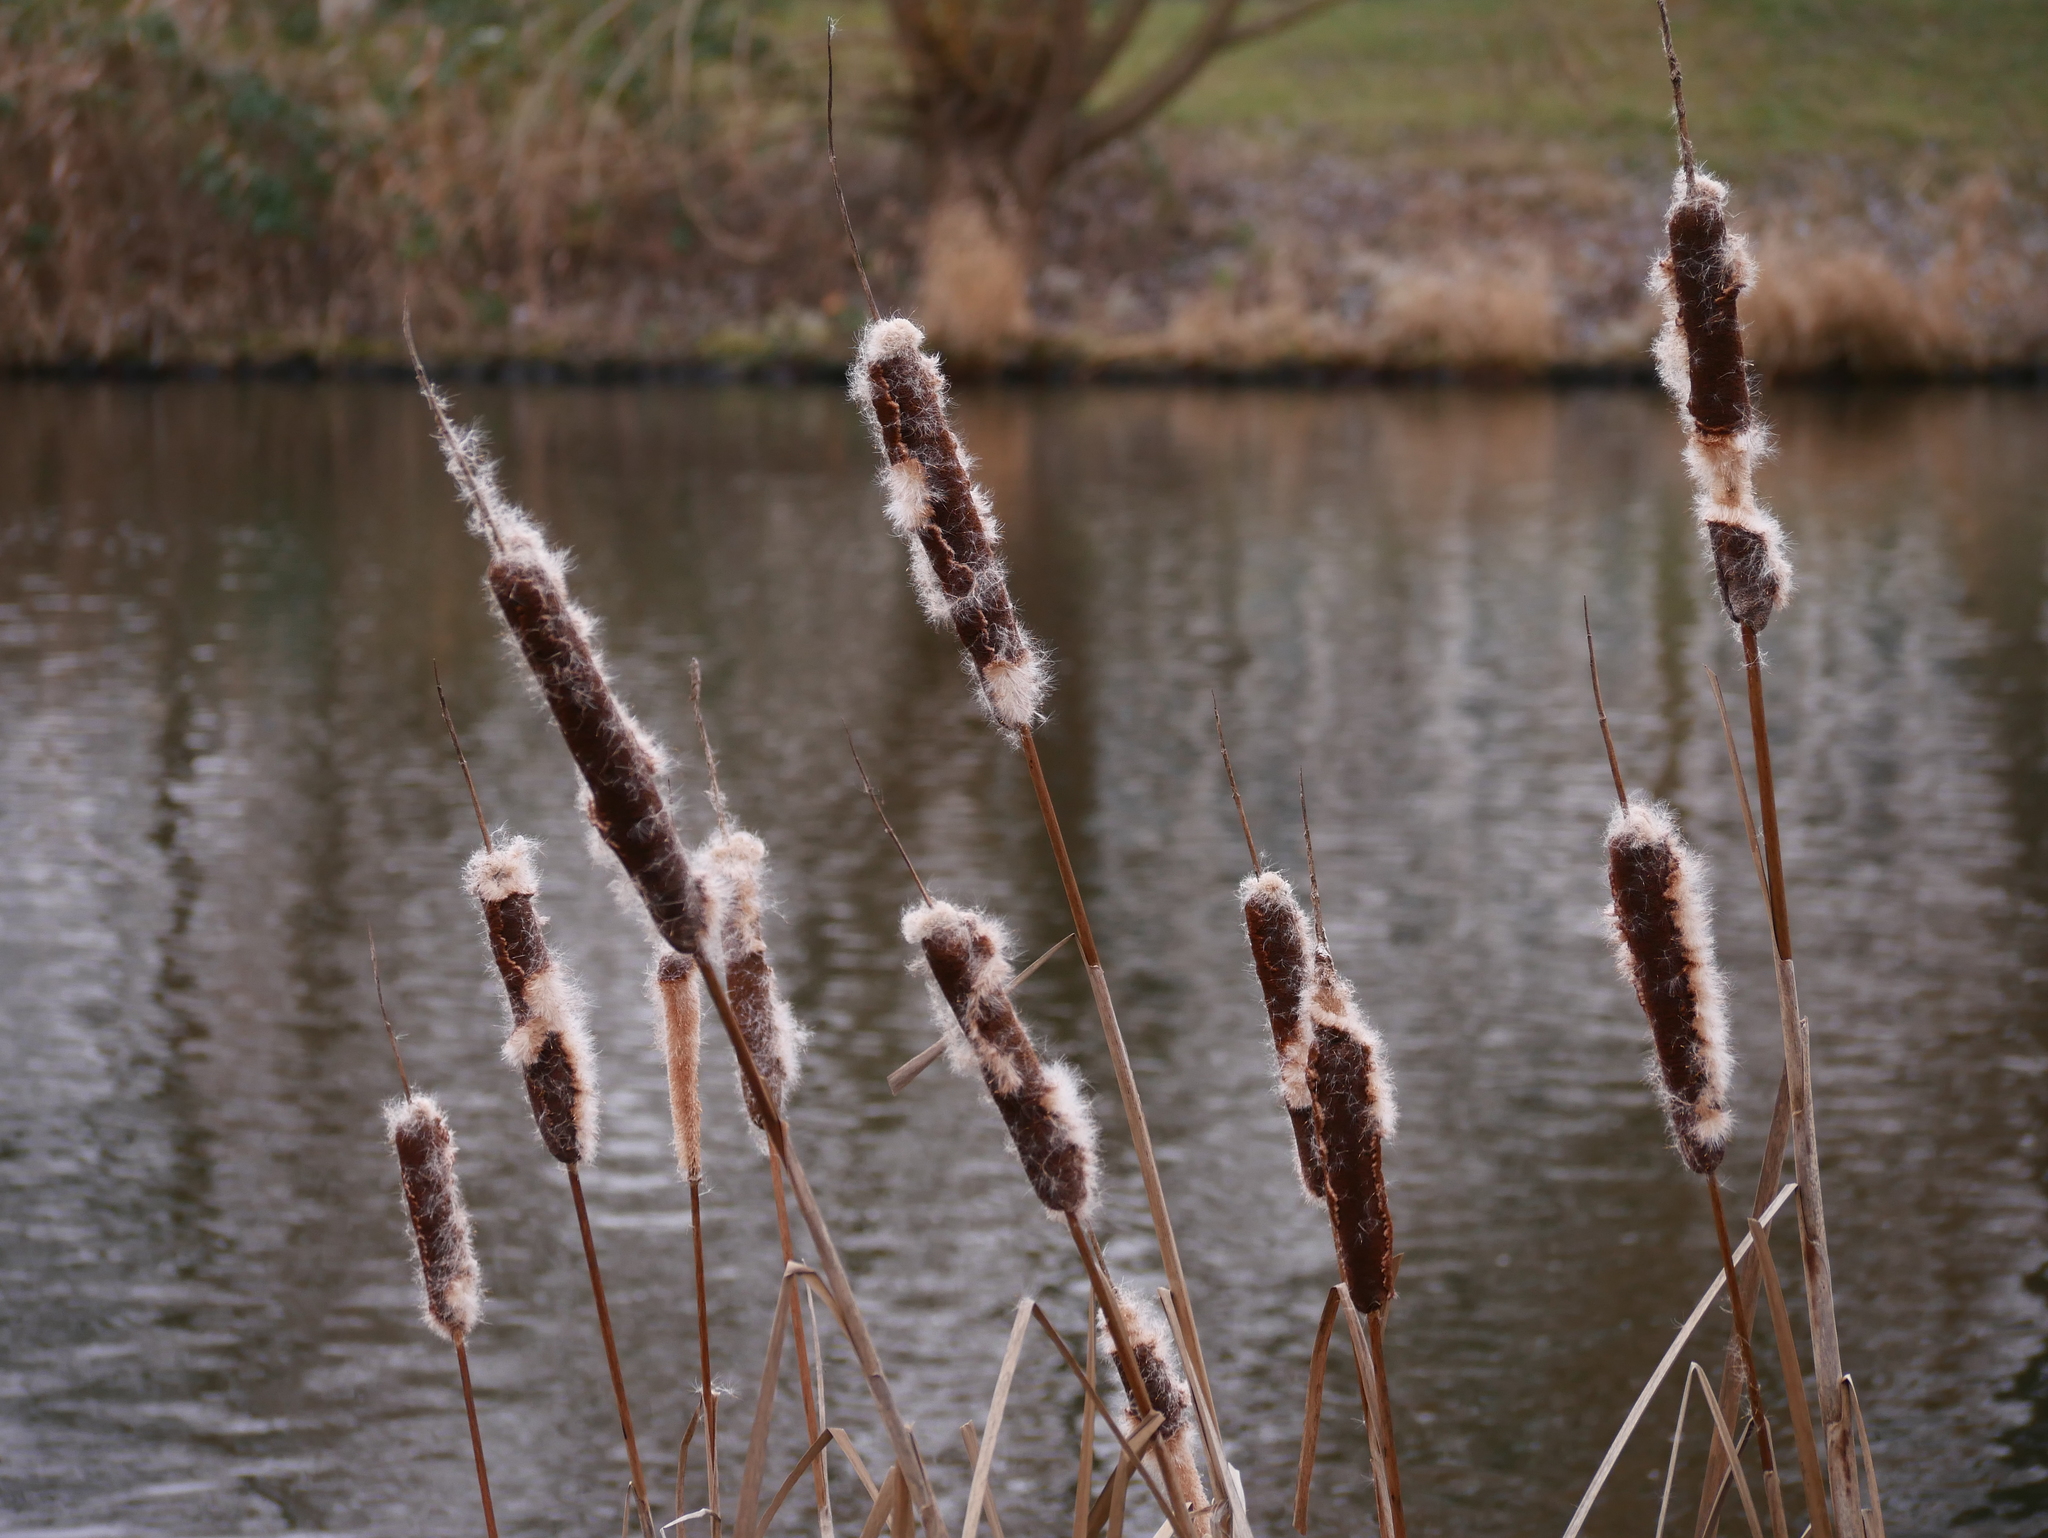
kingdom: Plantae
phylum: Tracheophyta
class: Liliopsida
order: Poales
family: Typhaceae
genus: Typha
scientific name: Typha angustifolia
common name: Lesser bulrush
